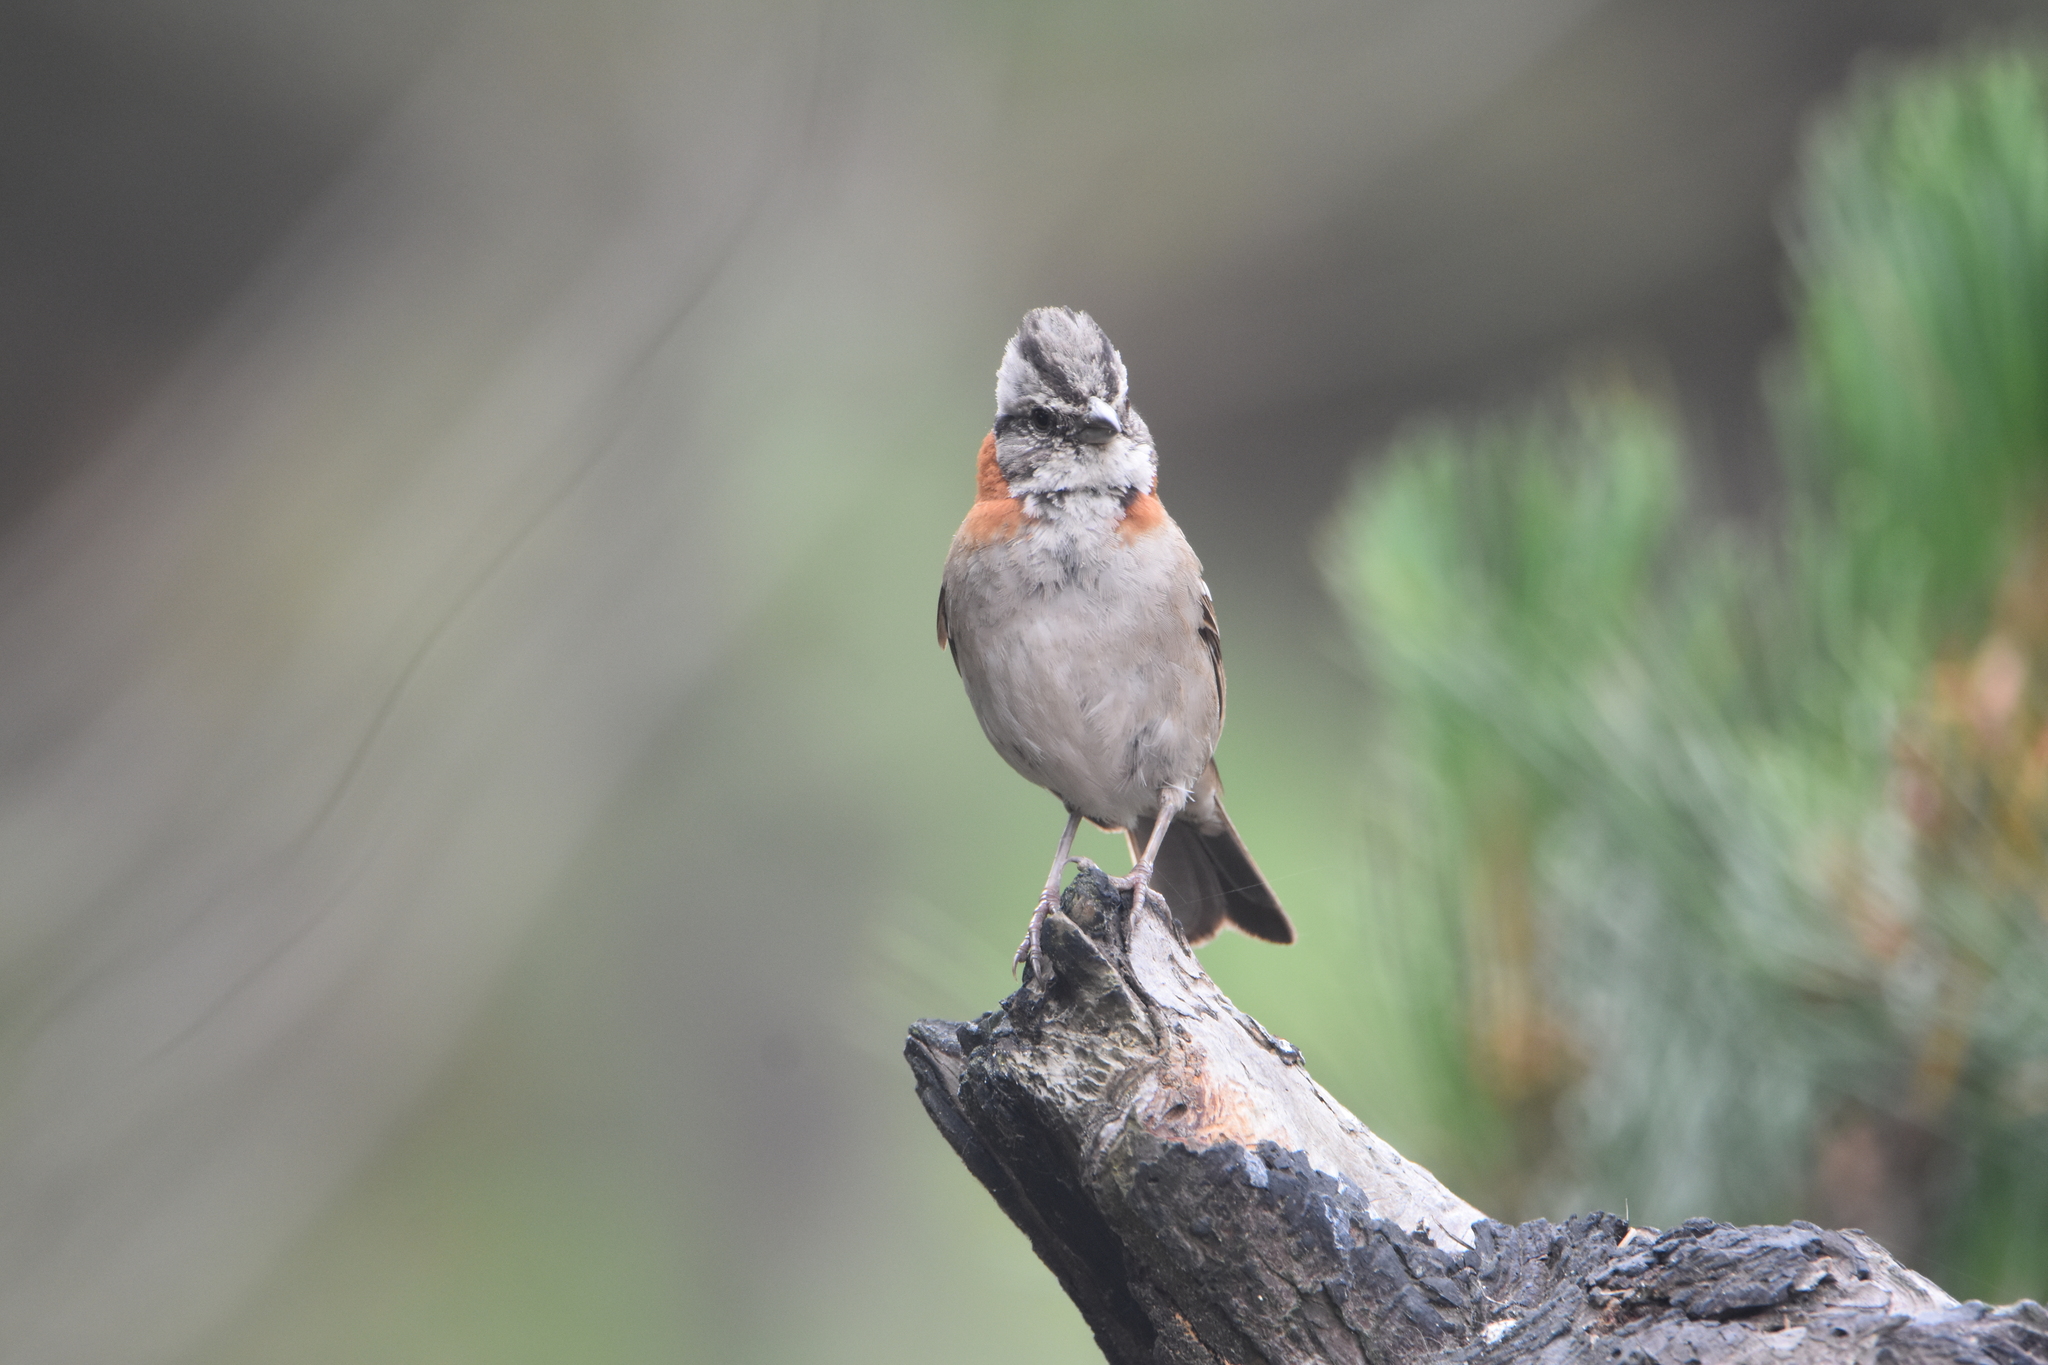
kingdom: Animalia
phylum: Chordata
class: Aves
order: Passeriformes
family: Passerellidae
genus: Zonotrichia
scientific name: Zonotrichia capensis
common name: Rufous-collared sparrow
